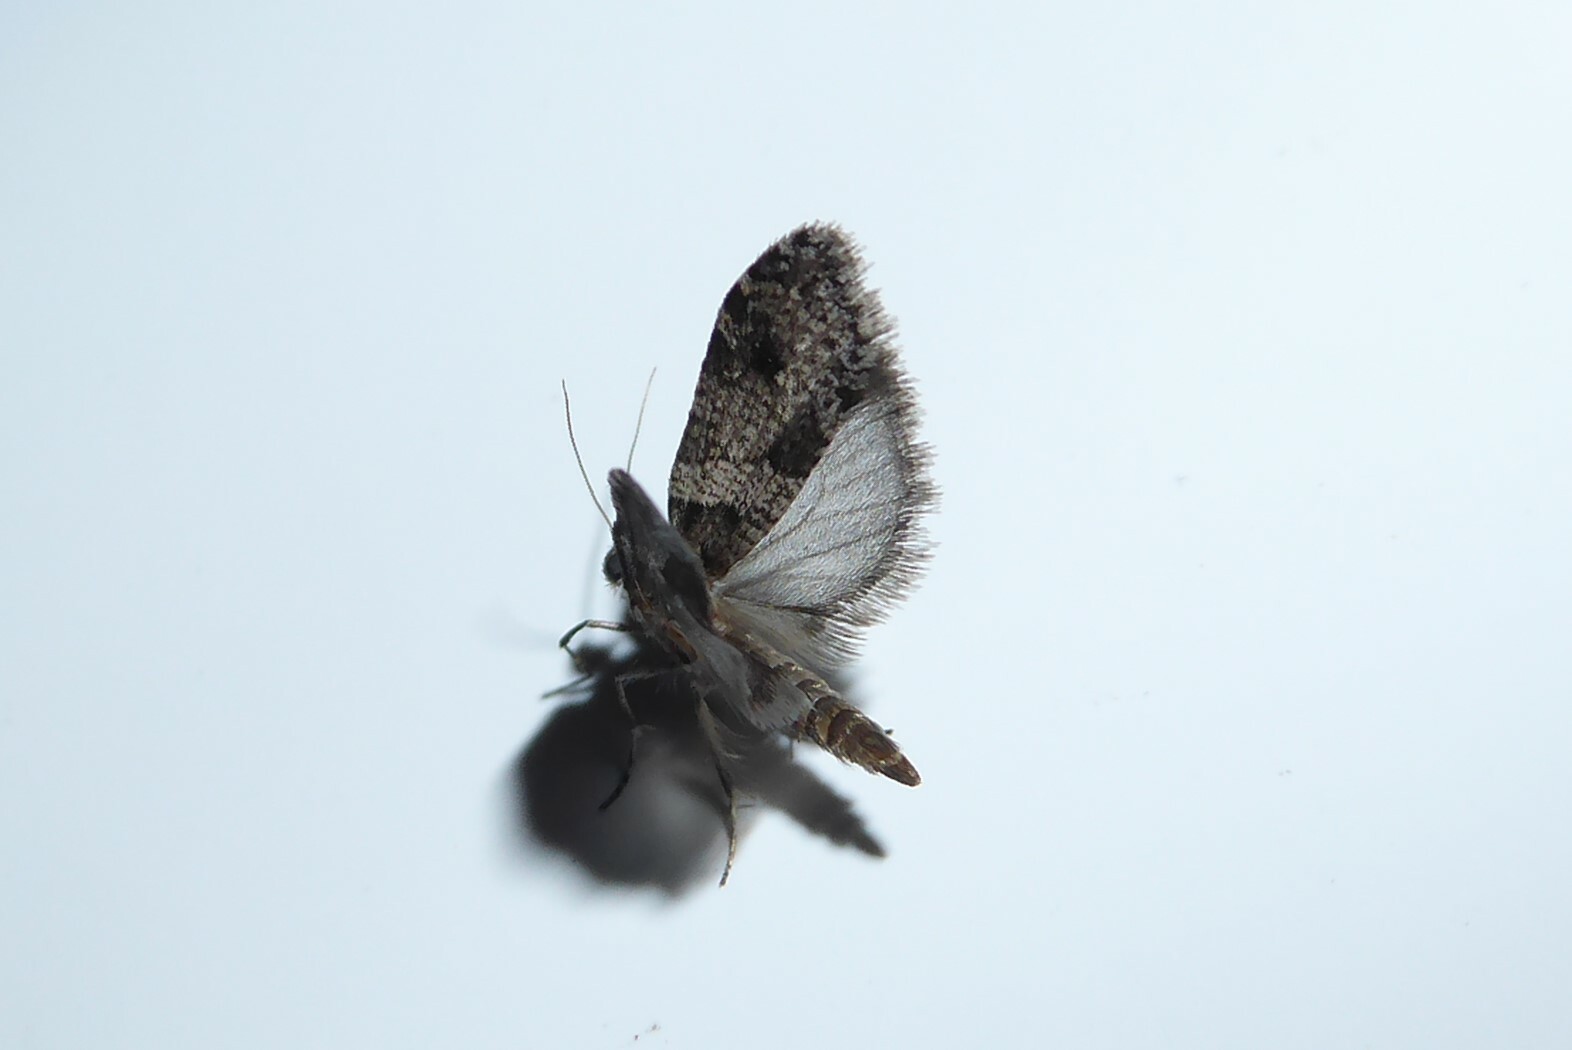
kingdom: Animalia
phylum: Arthropoda
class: Insecta
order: Lepidoptera
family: Psychidae
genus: Lepidoscia
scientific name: Lepidoscia heliochares
